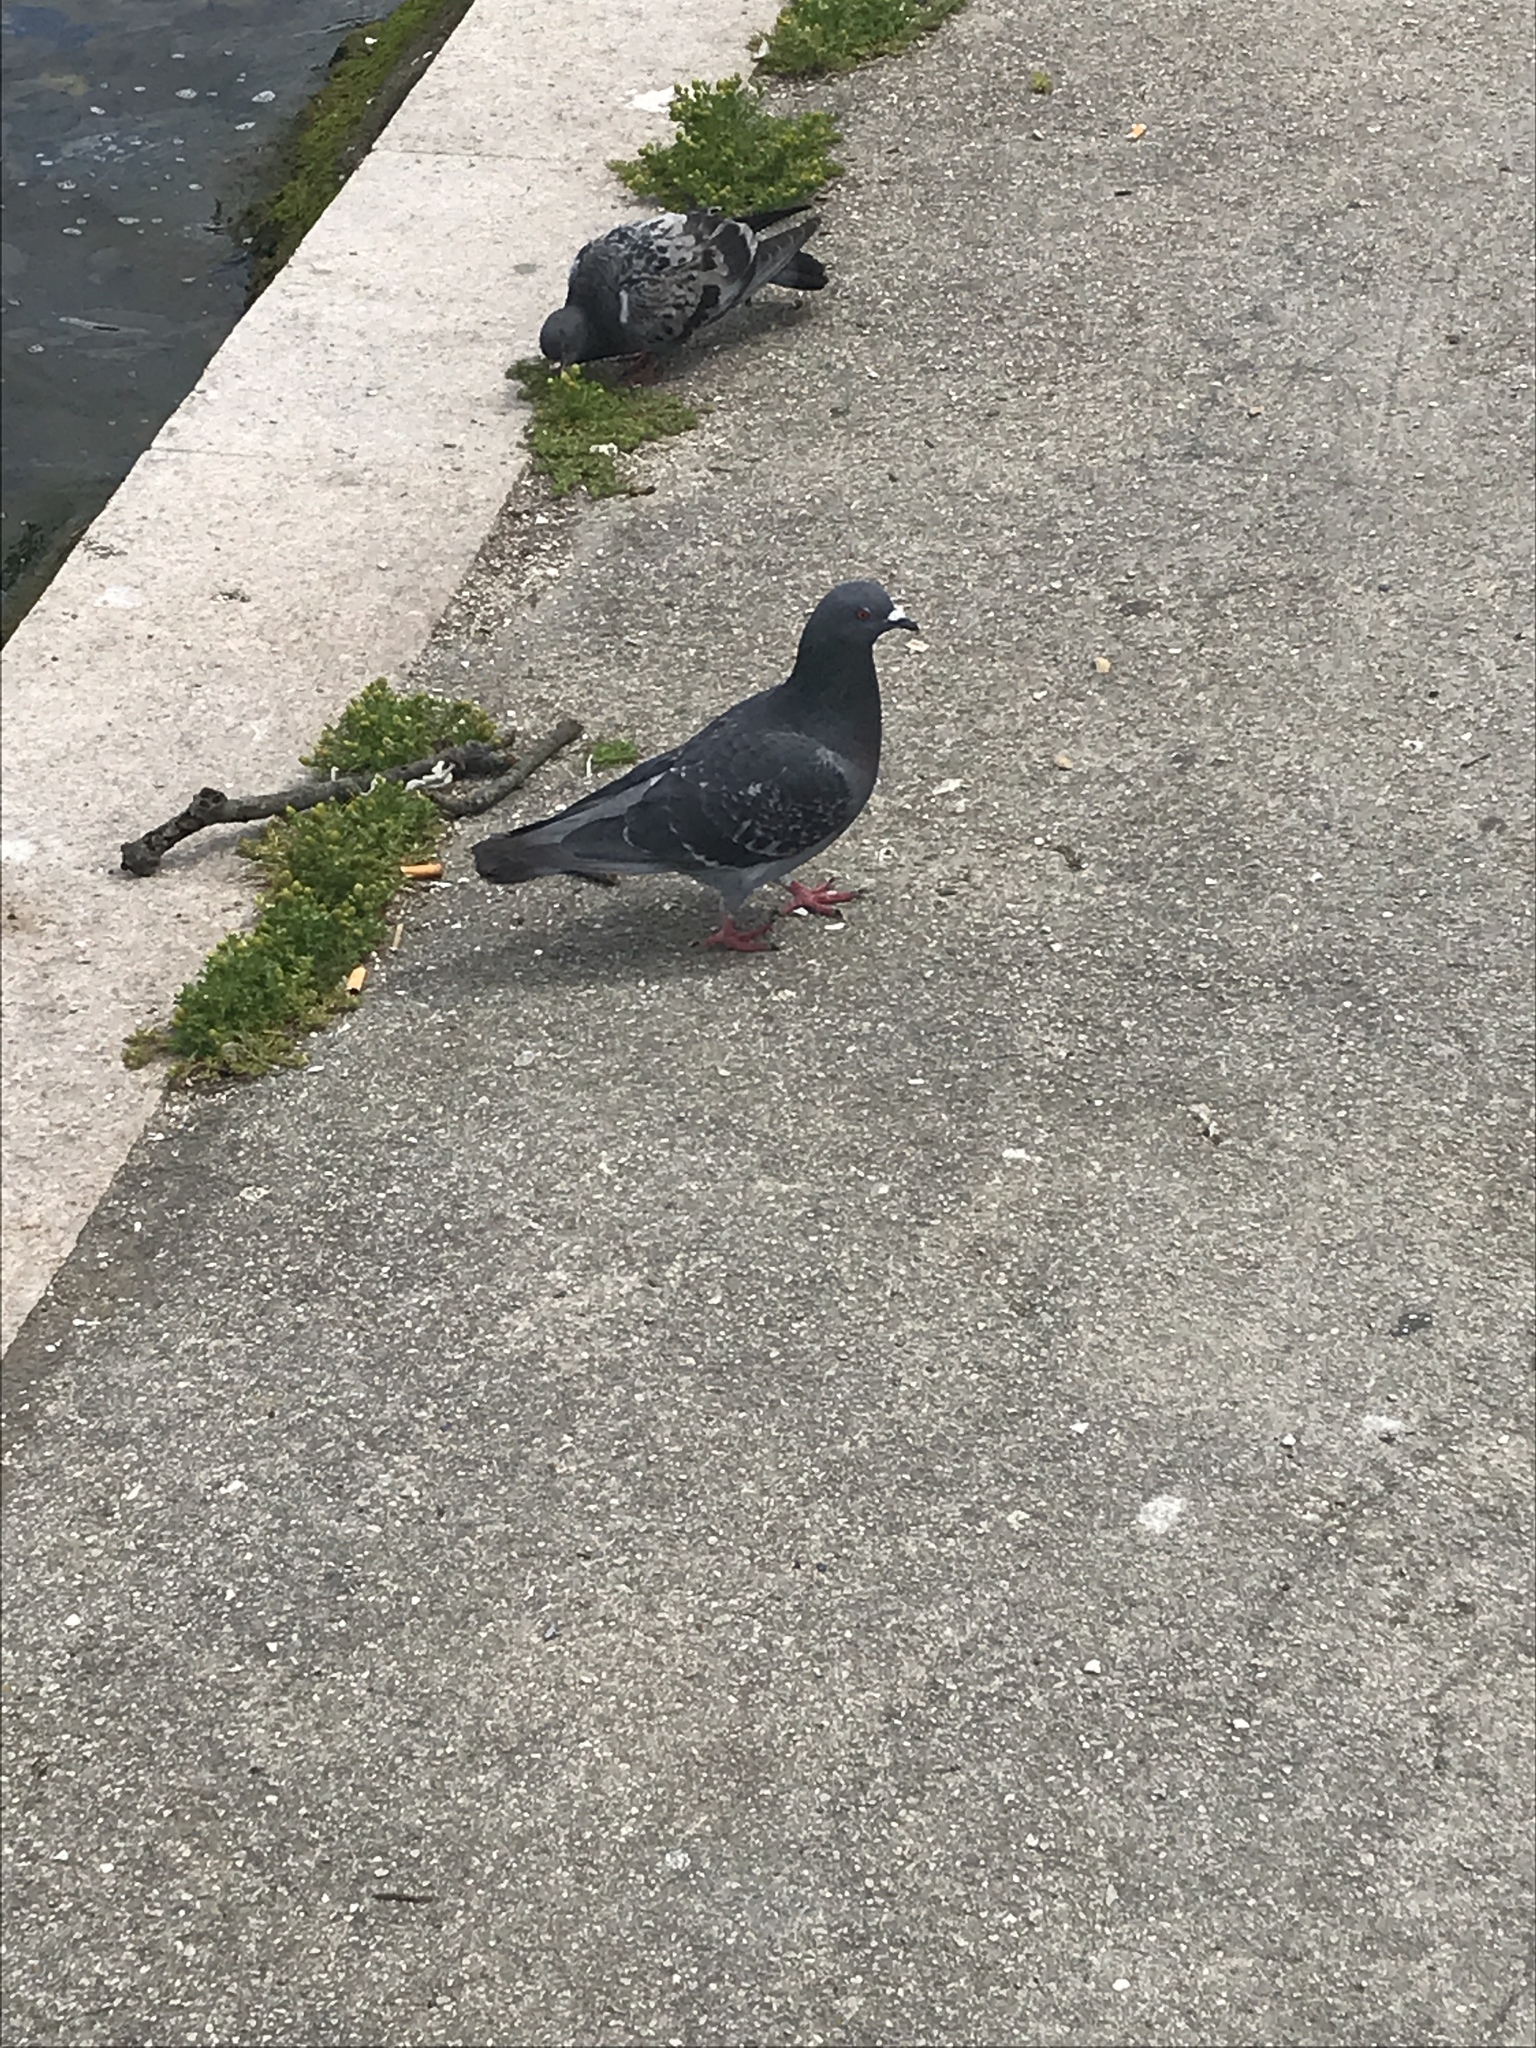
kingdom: Animalia
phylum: Chordata
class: Aves
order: Columbiformes
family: Columbidae
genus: Columba
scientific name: Columba livia
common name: Rock pigeon
